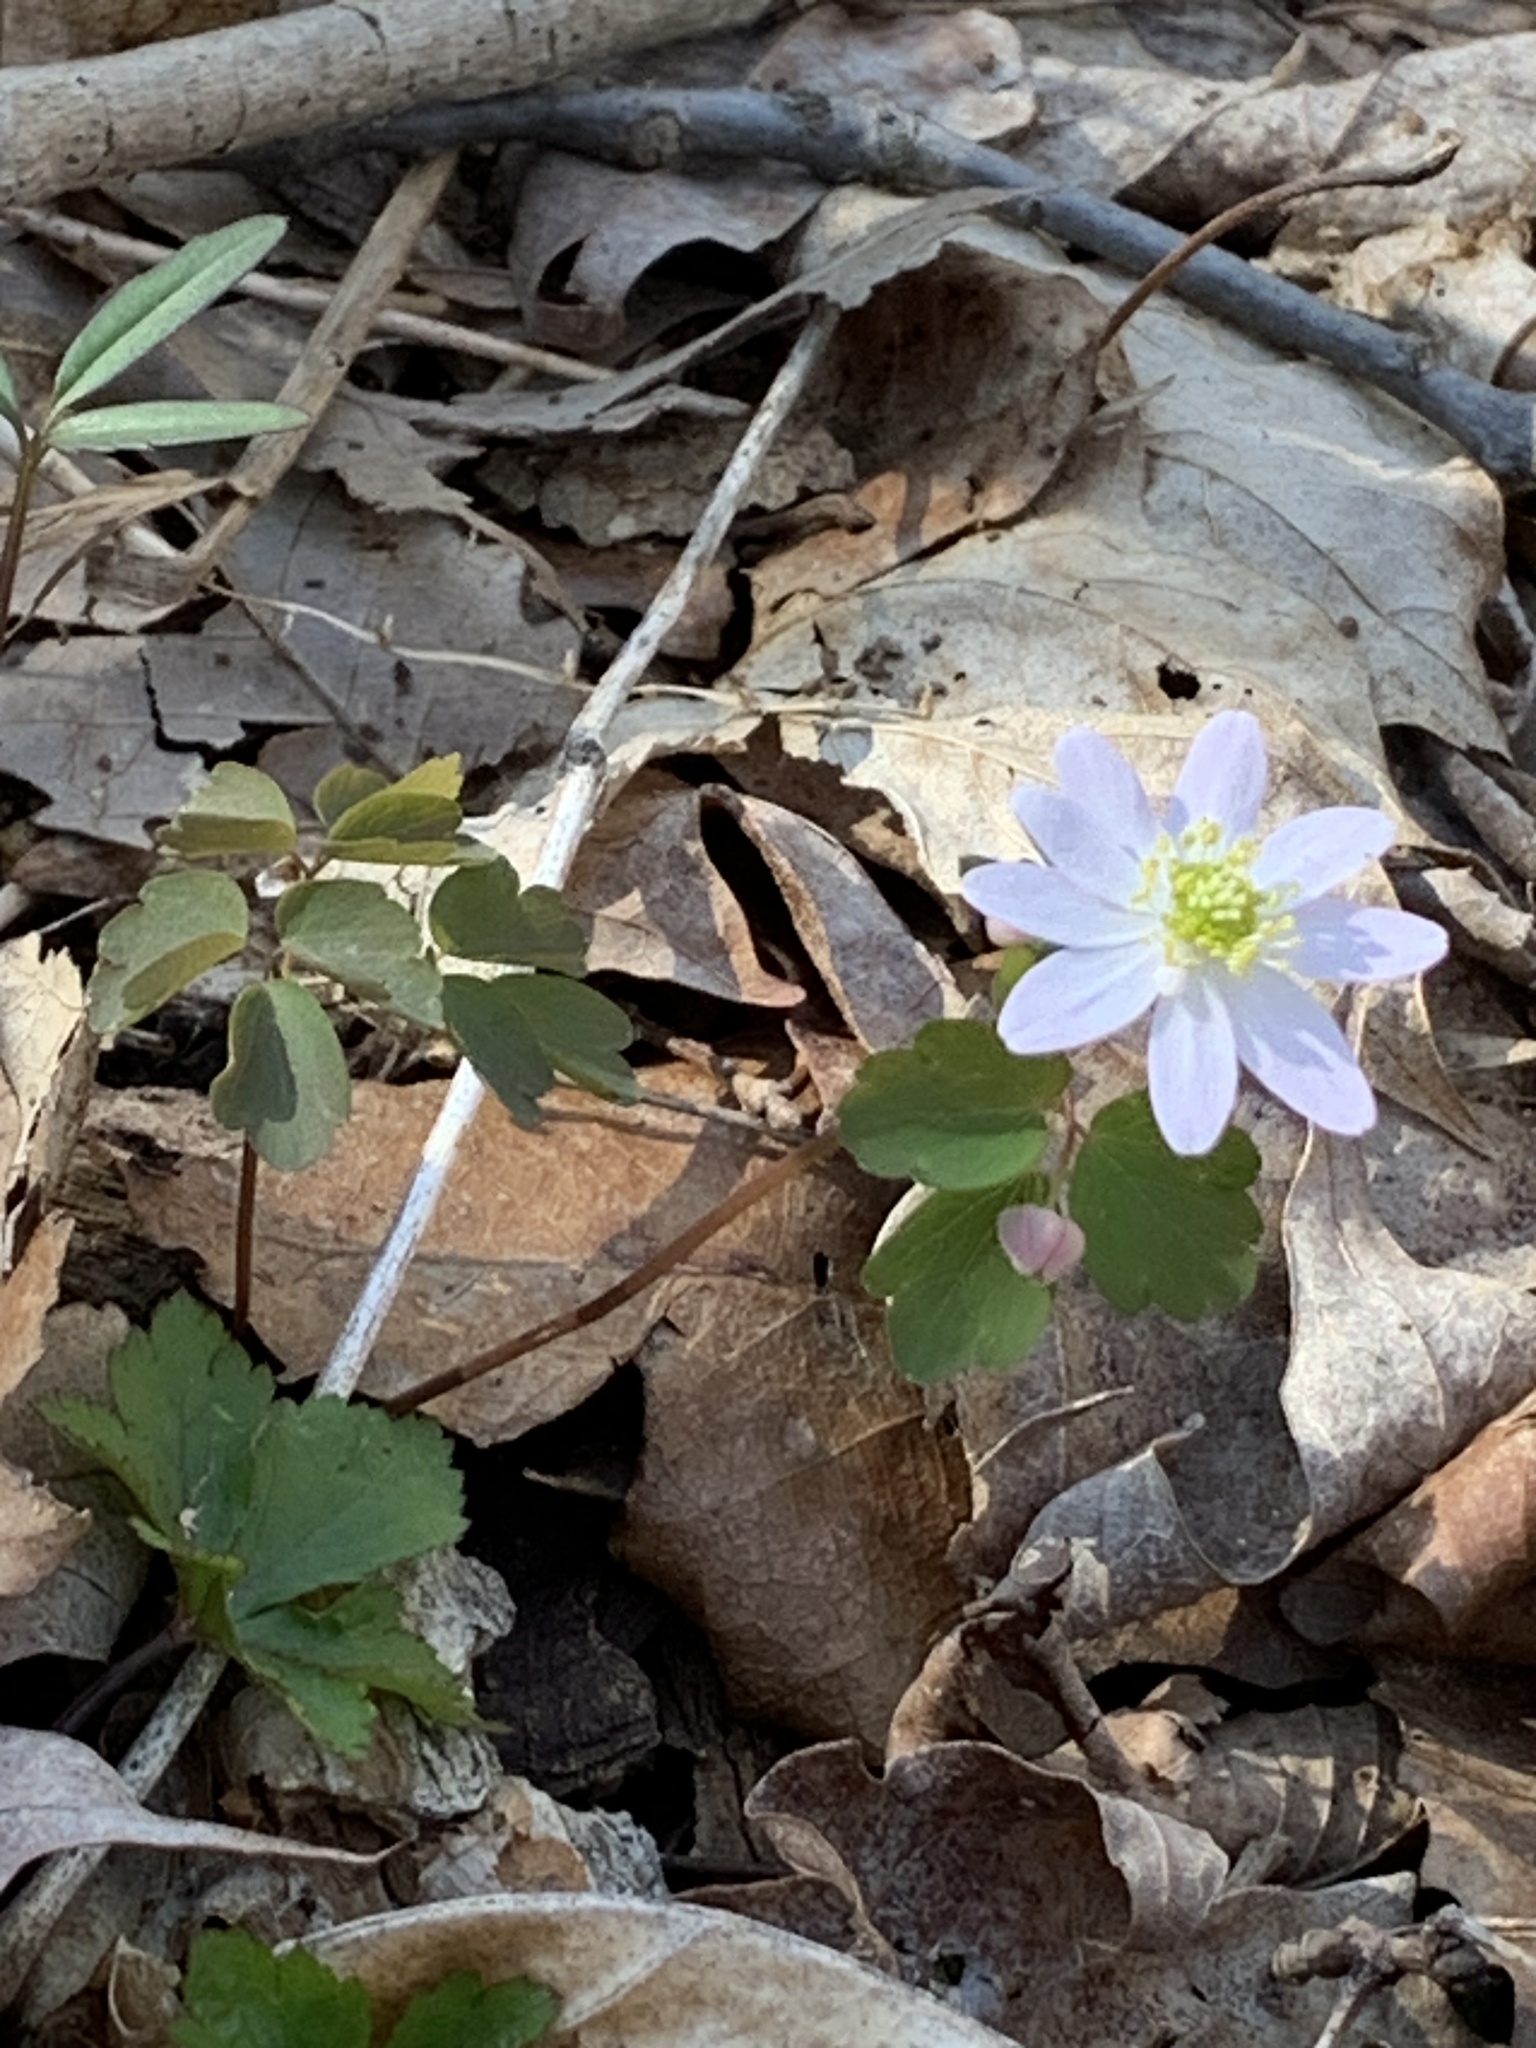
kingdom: Plantae
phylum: Tracheophyta
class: Magnoliopsida
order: Ranunculales
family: Ranunculaceae
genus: Thalictrum
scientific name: Thalictrum thalictroides
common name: Rue-anemone
